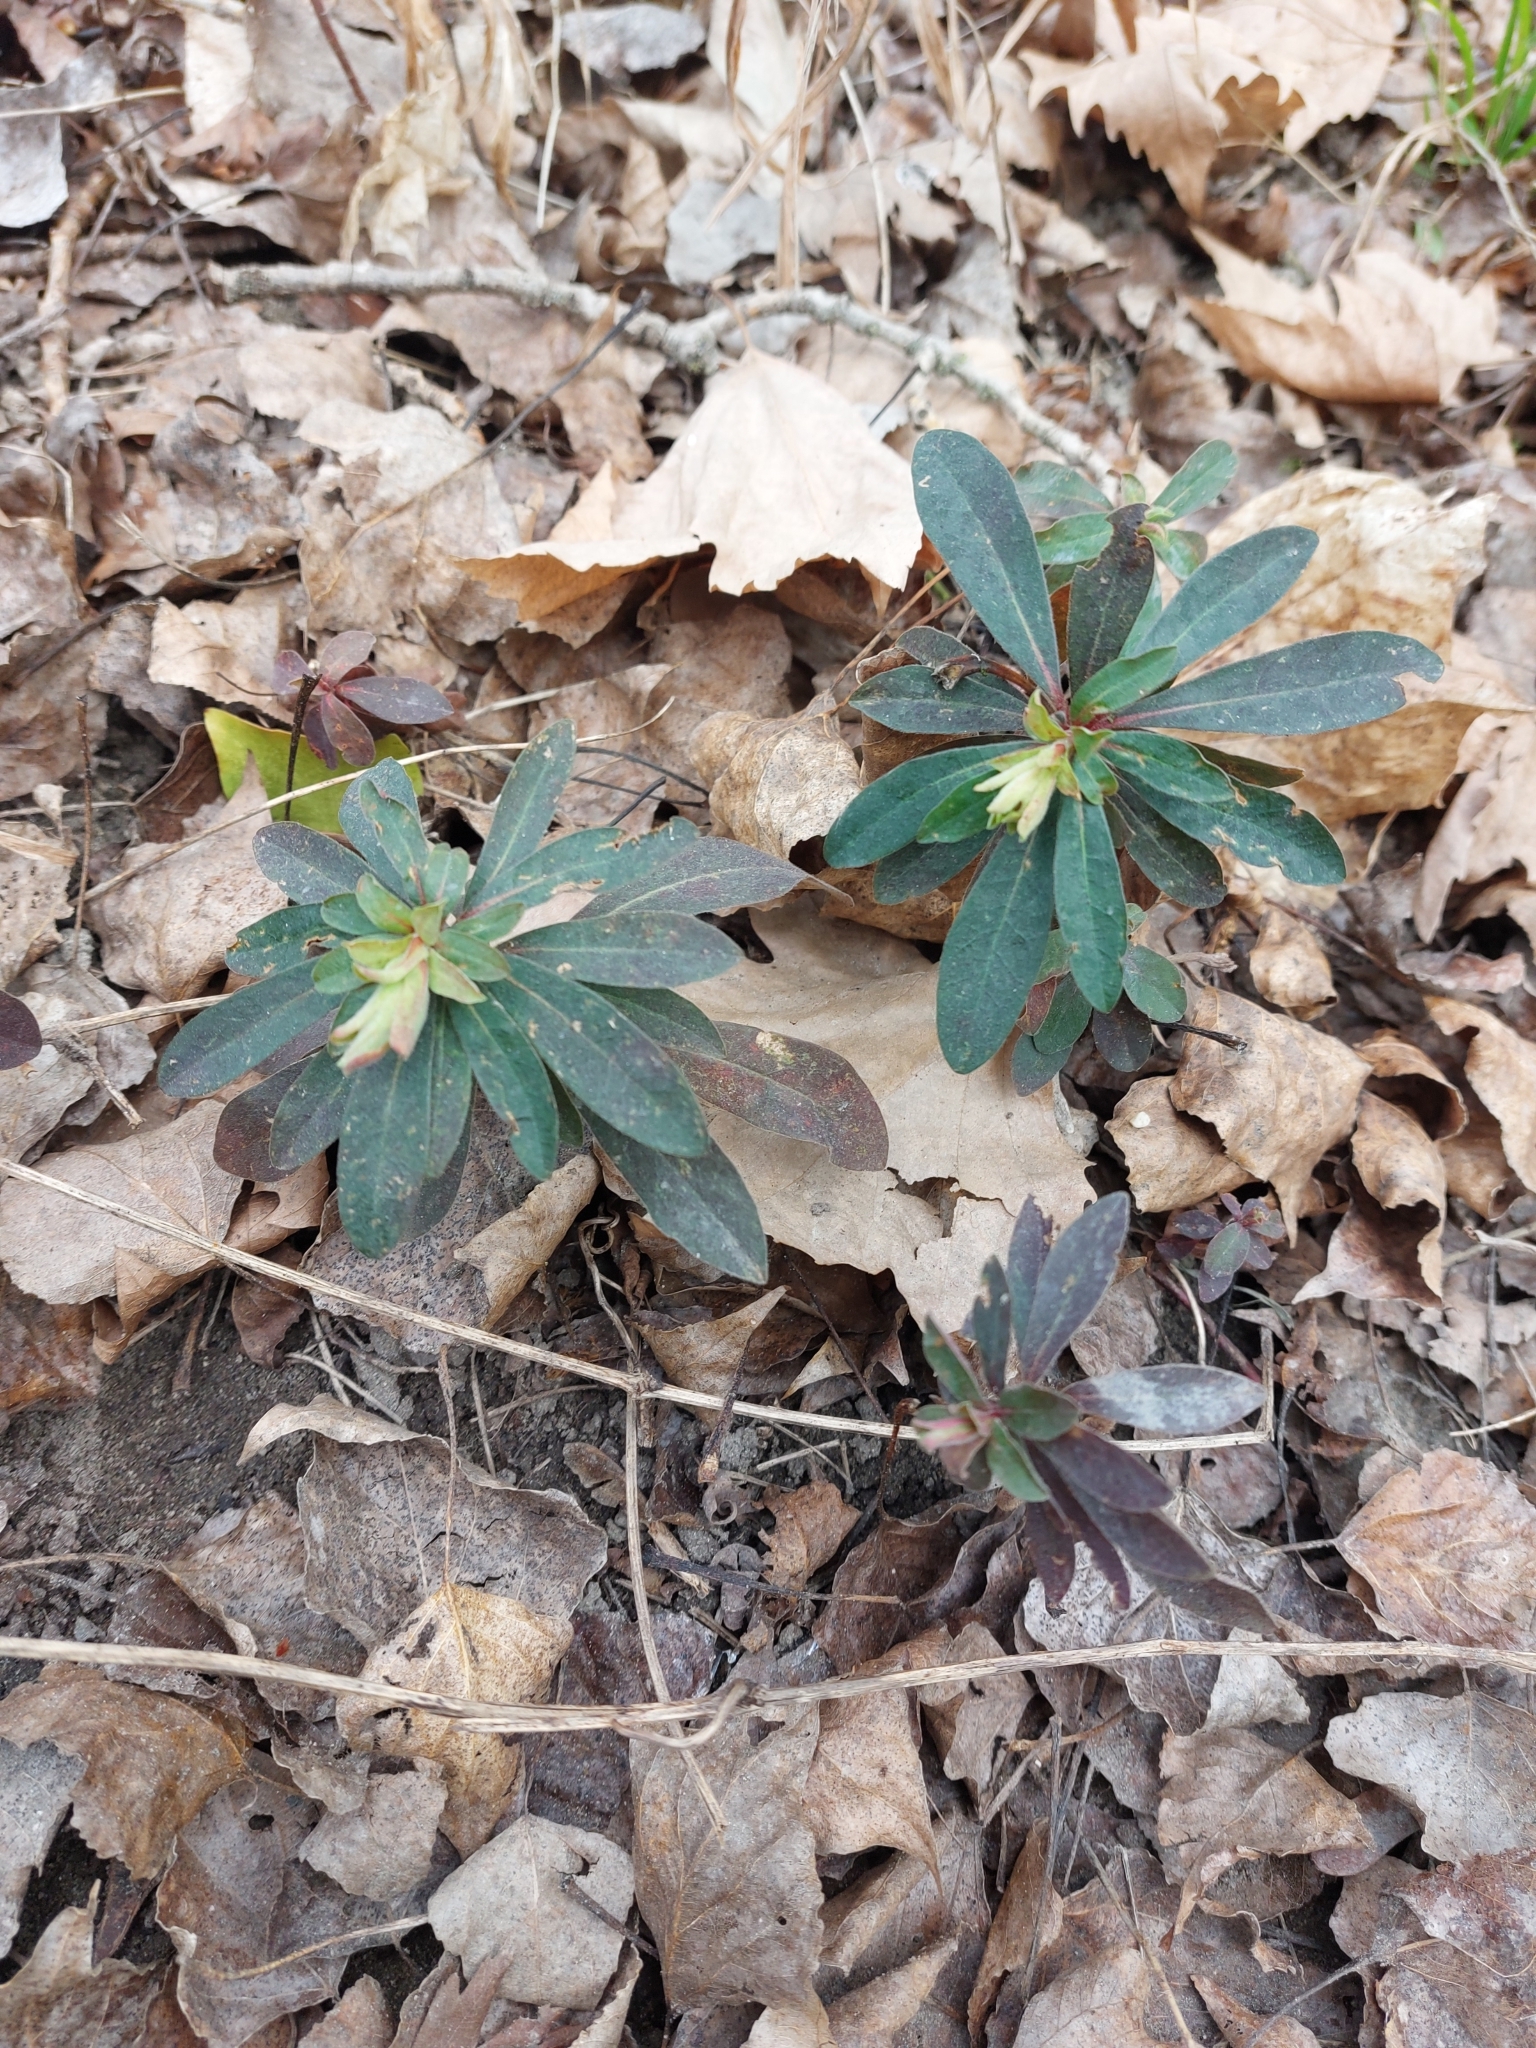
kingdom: Plantae
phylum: Tracheophyta
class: Magnoliopsida
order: Malpighiales
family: Euphorbiaceae
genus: Euphorbia
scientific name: Euphorbia amygdaloides
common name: Wood spurge
